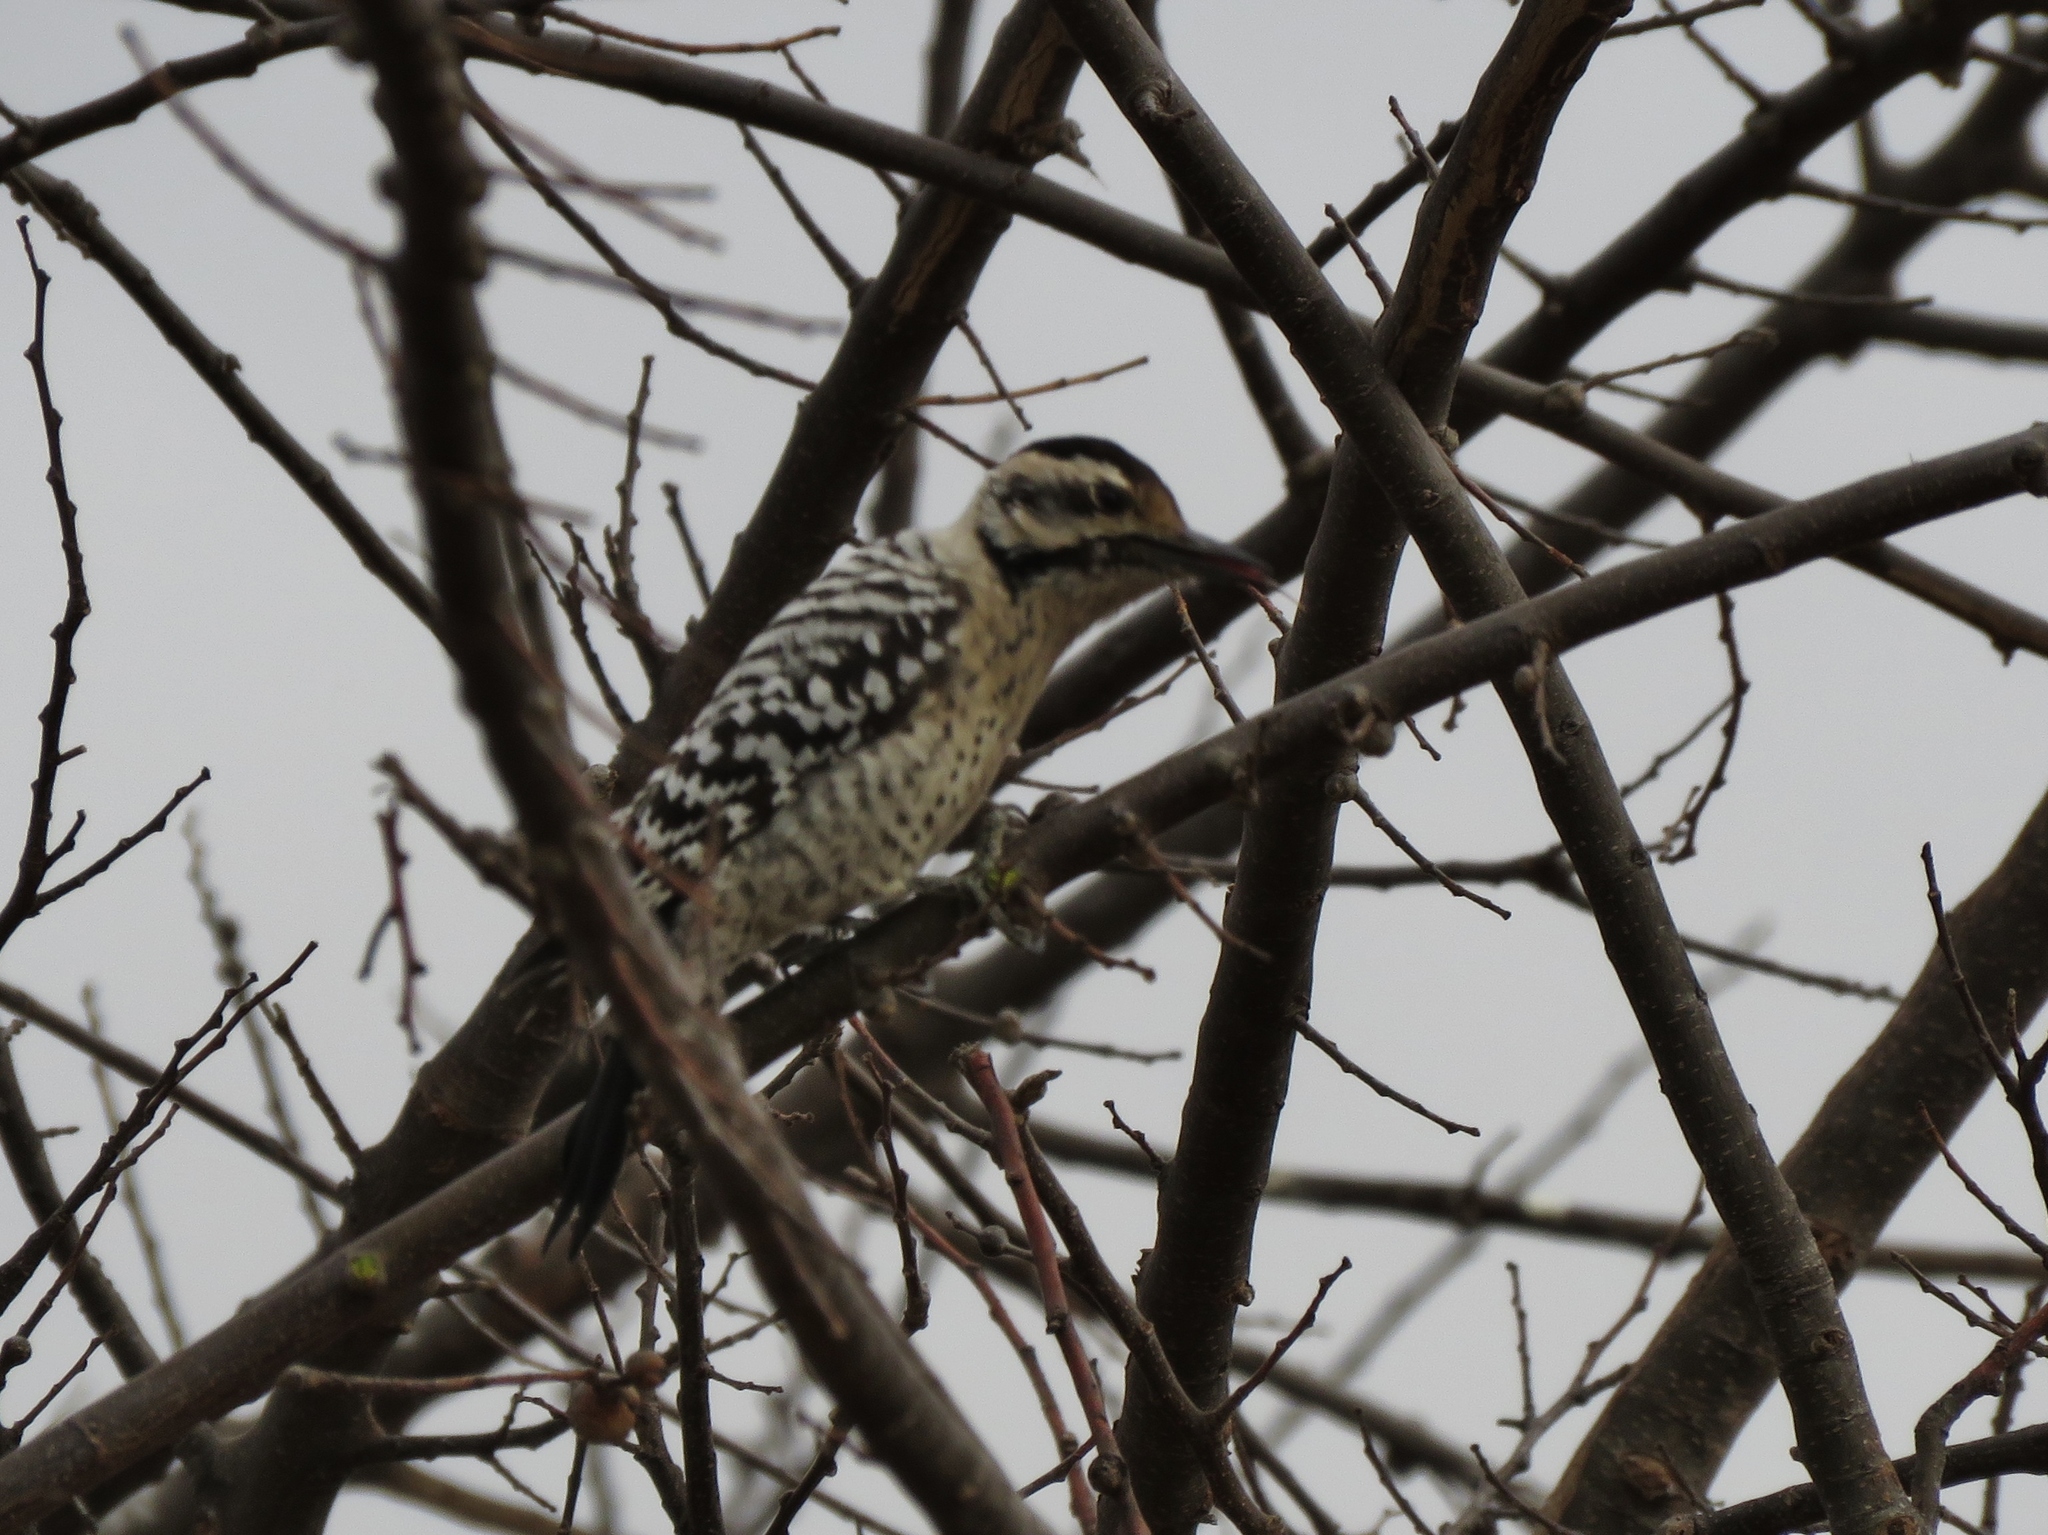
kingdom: Animalia
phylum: Chordata
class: Aves
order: Piciformes
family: Picidae
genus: Dryobates
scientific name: Dryobates scalaris
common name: Ladder-backed woodpecker
